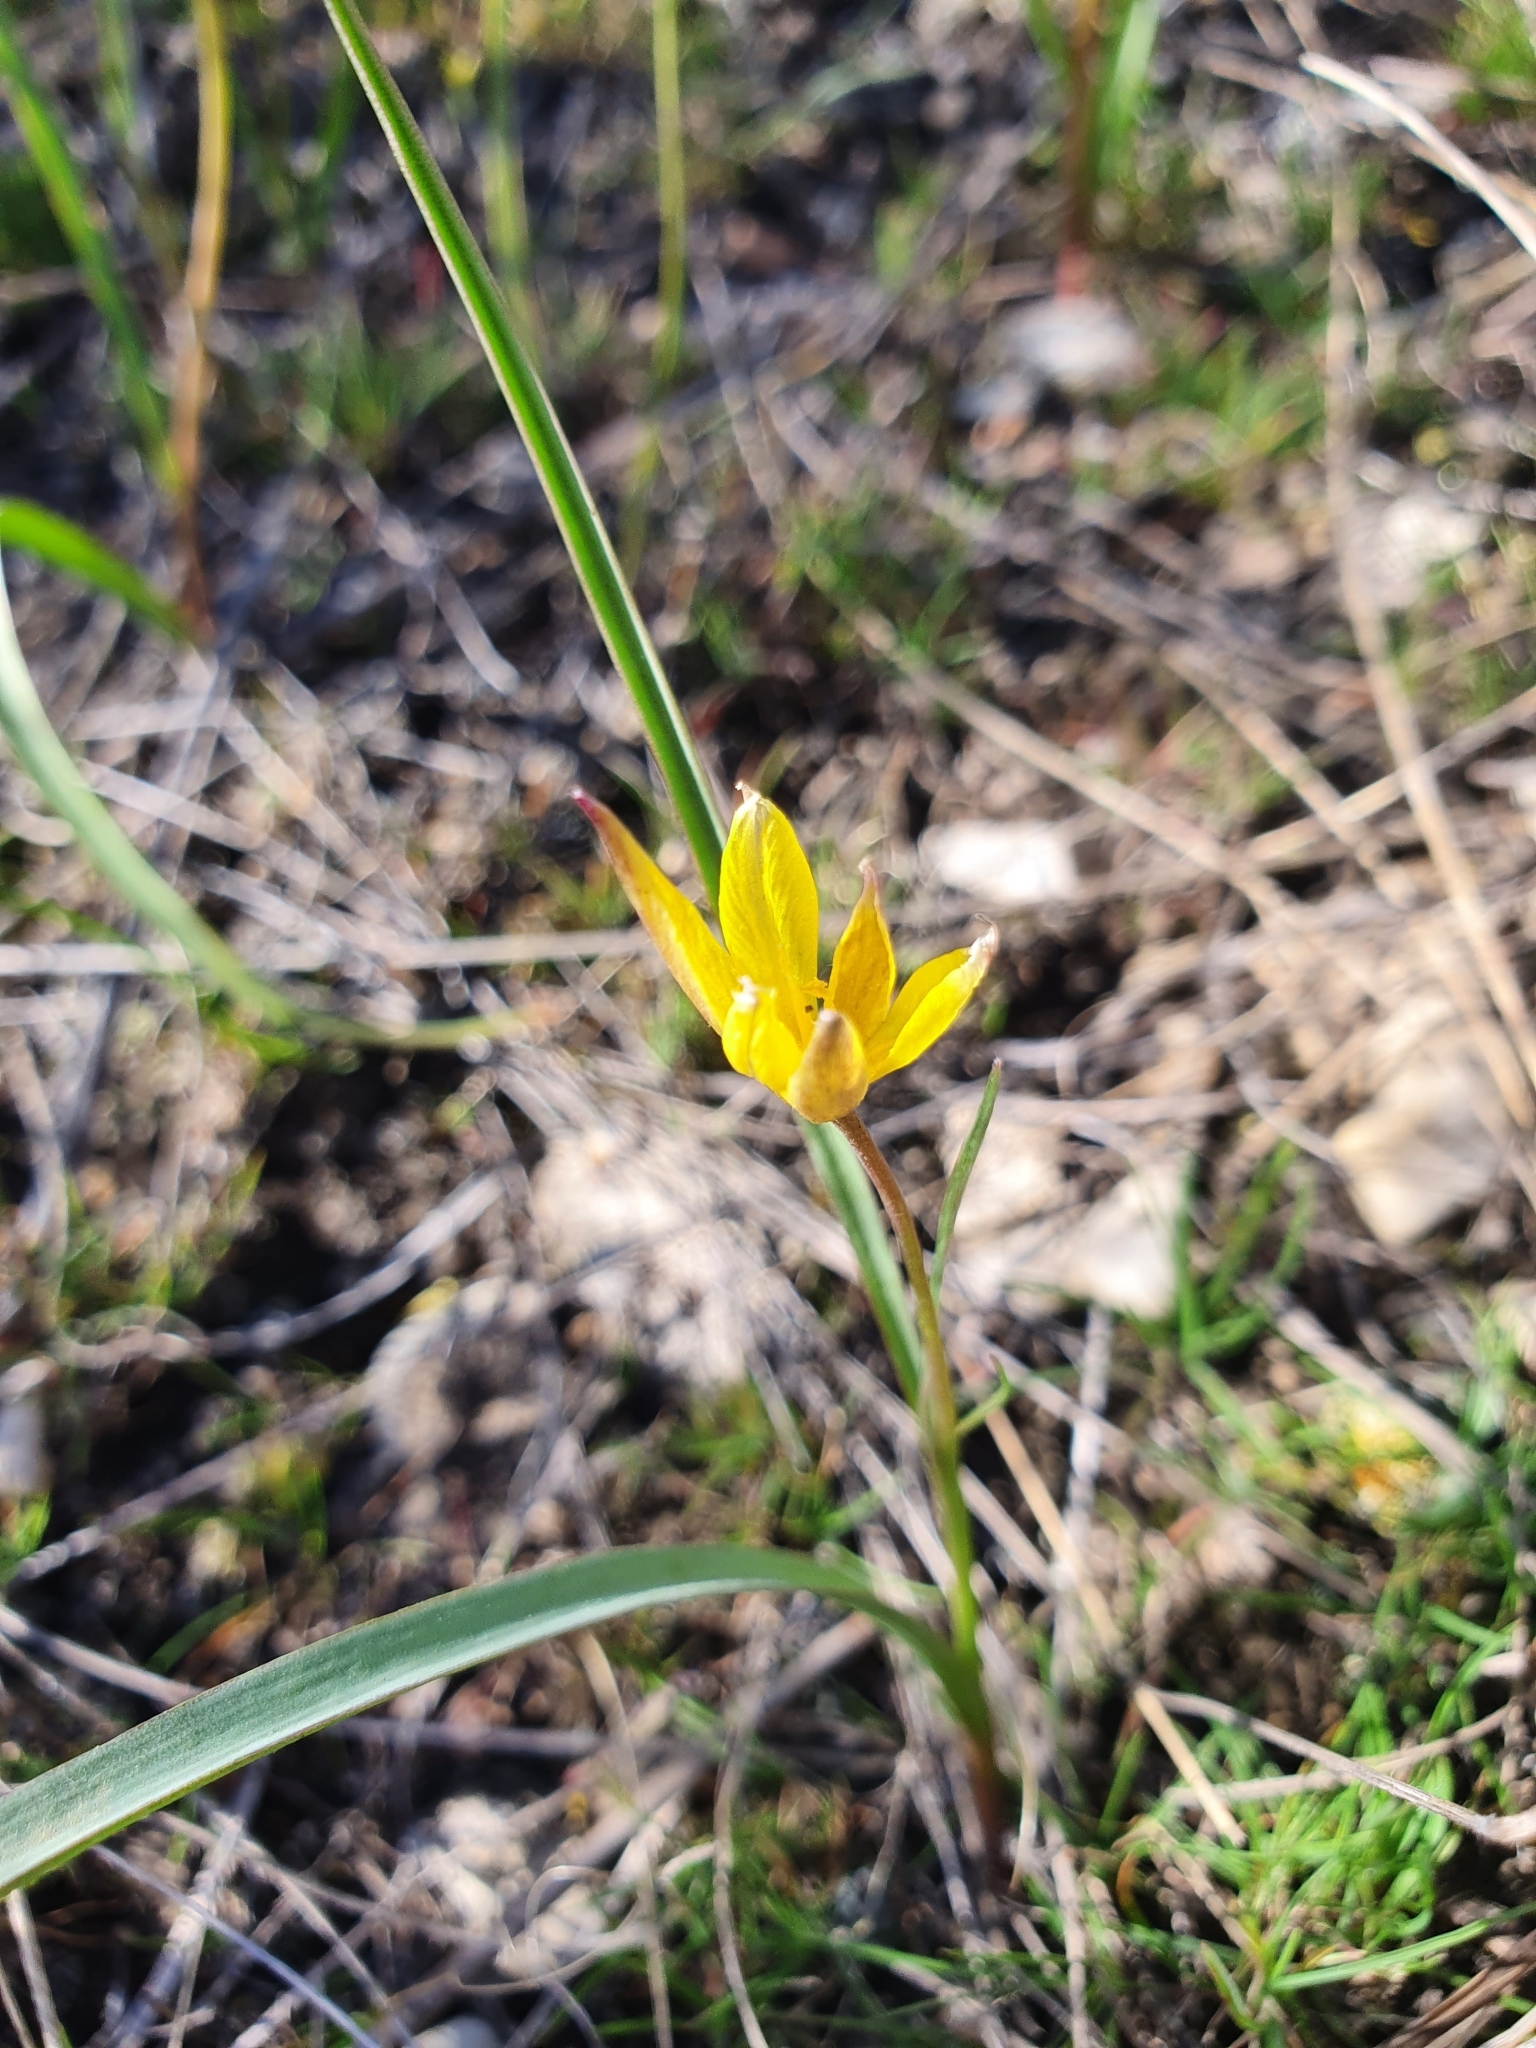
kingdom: Plantae
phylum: Tracheophyta
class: Liliopsida
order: Liliales
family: Liliaceae
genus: Tulipa
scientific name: Tulipa sylvestris
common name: Wild tulip
